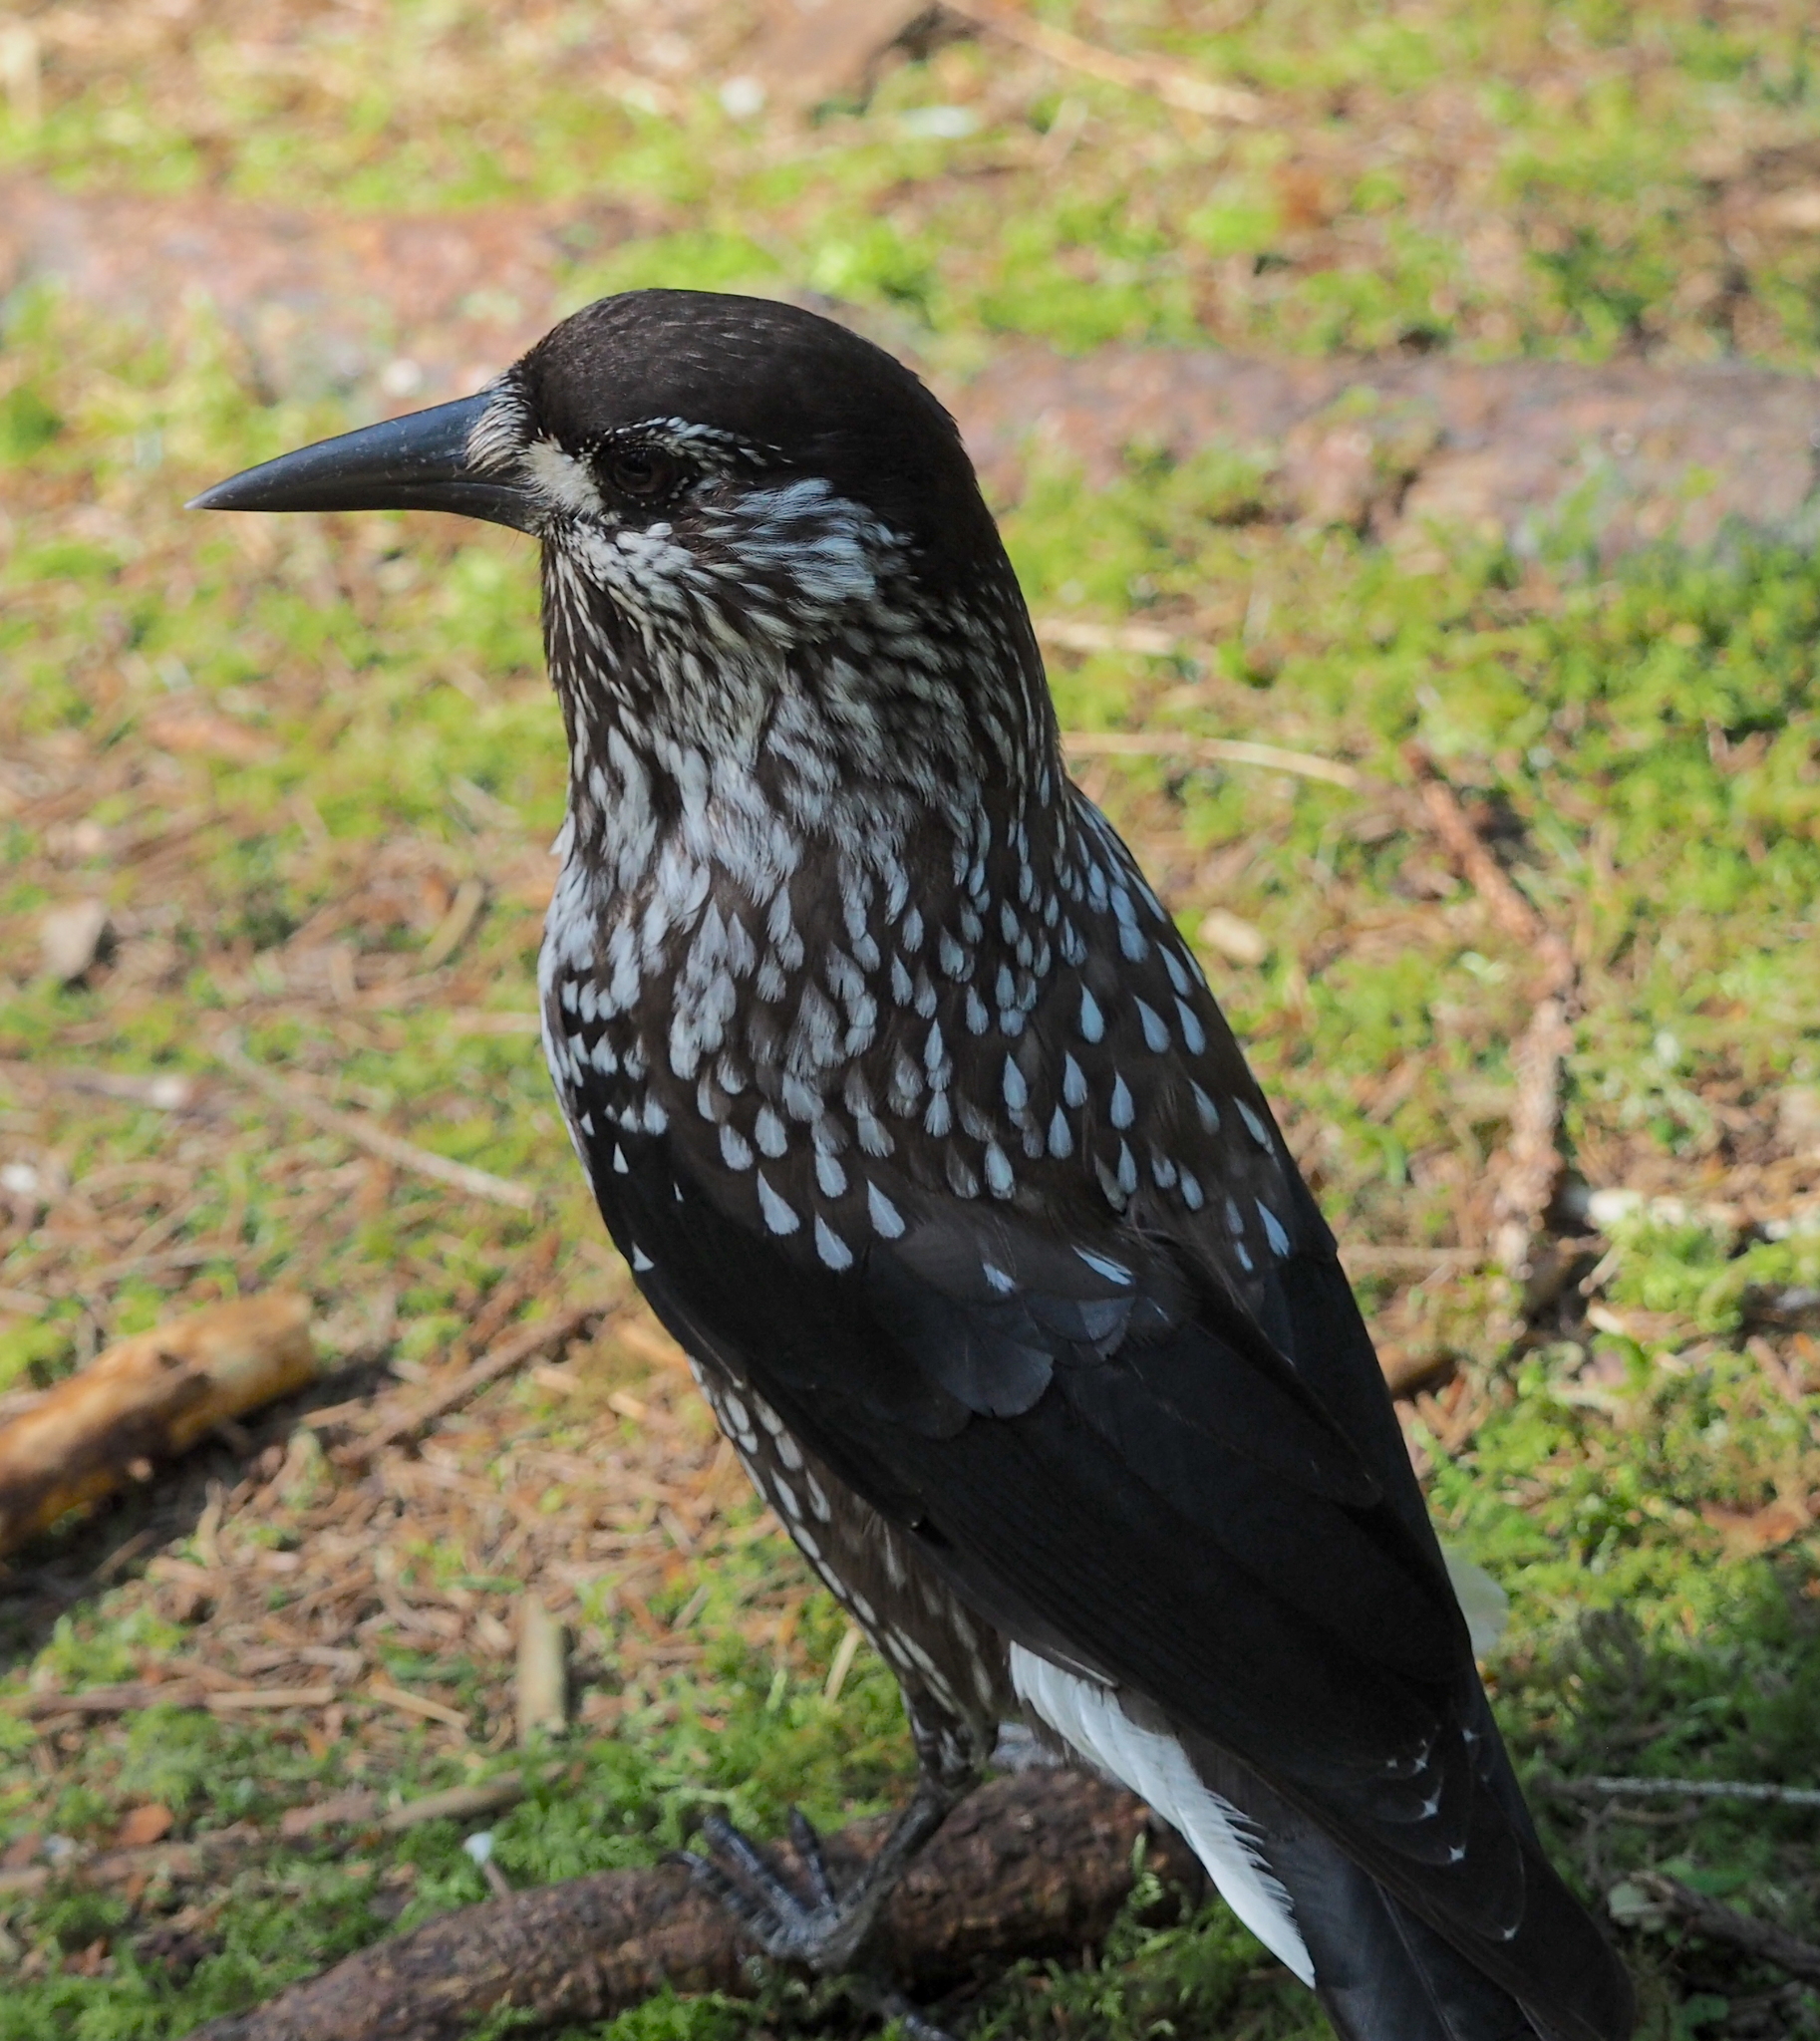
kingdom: Animalia
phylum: Chordata
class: Aves
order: Passeriformes
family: Corvidae
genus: Nucifraga
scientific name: Nucifraga caryocatactes
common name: Spotted nutcracker
